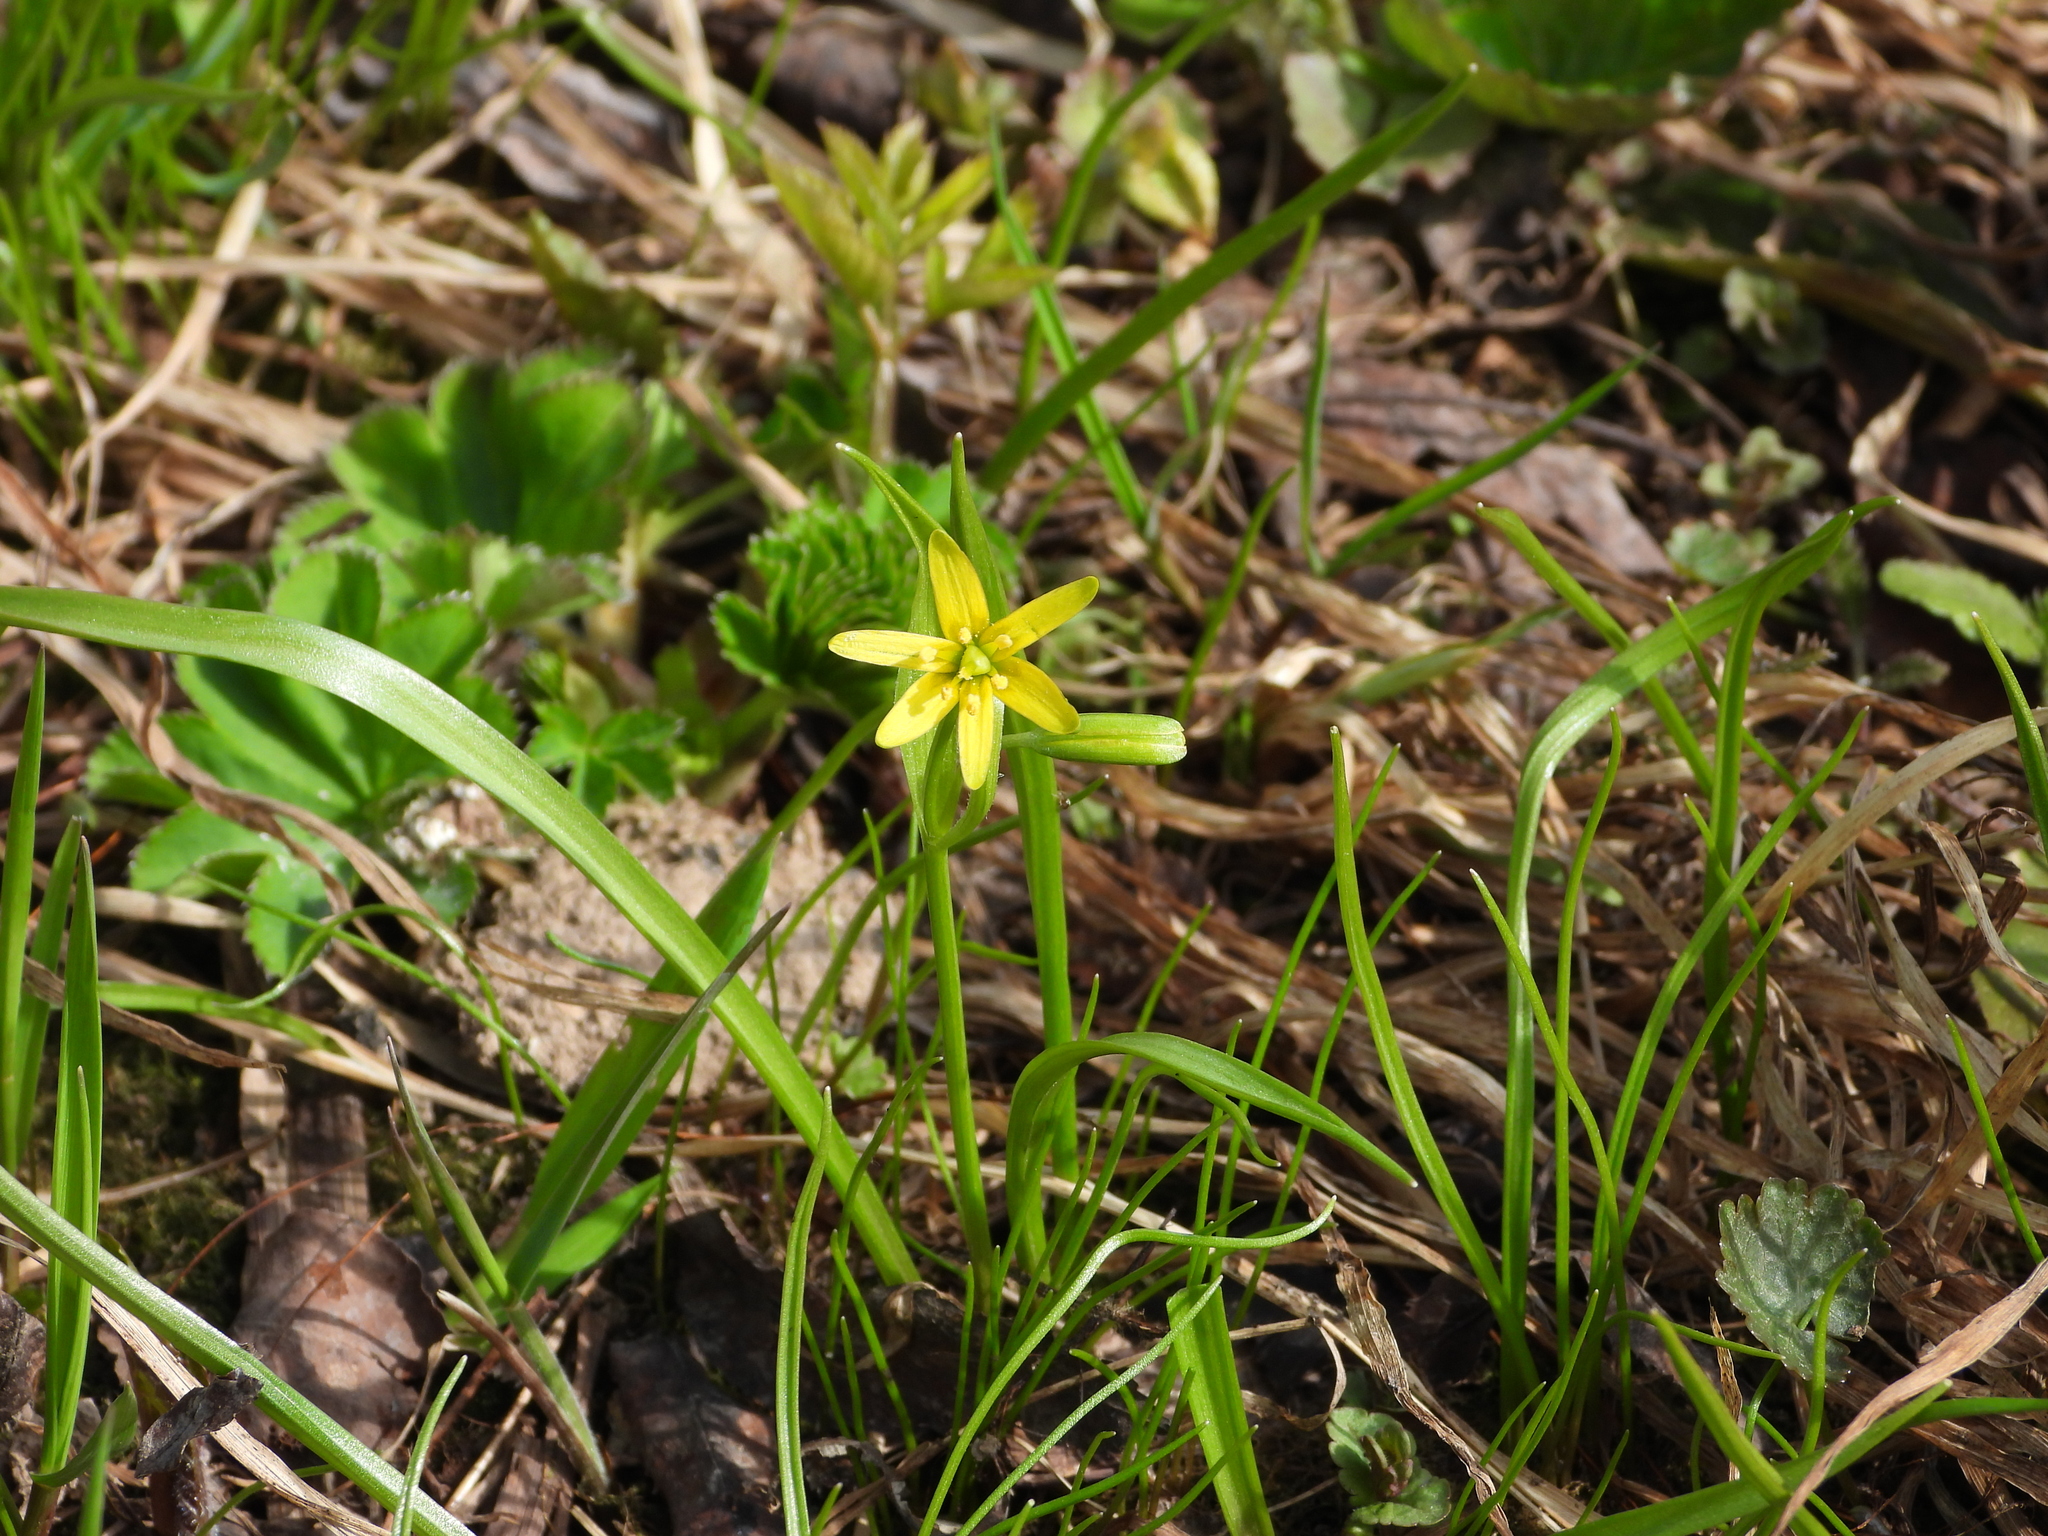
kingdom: Plantae
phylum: Tracheophyta
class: Liliopsida
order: Liliales
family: Liliaceae
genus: Gagea
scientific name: Gagea lutea
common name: Yellow star-of-bethlehem
